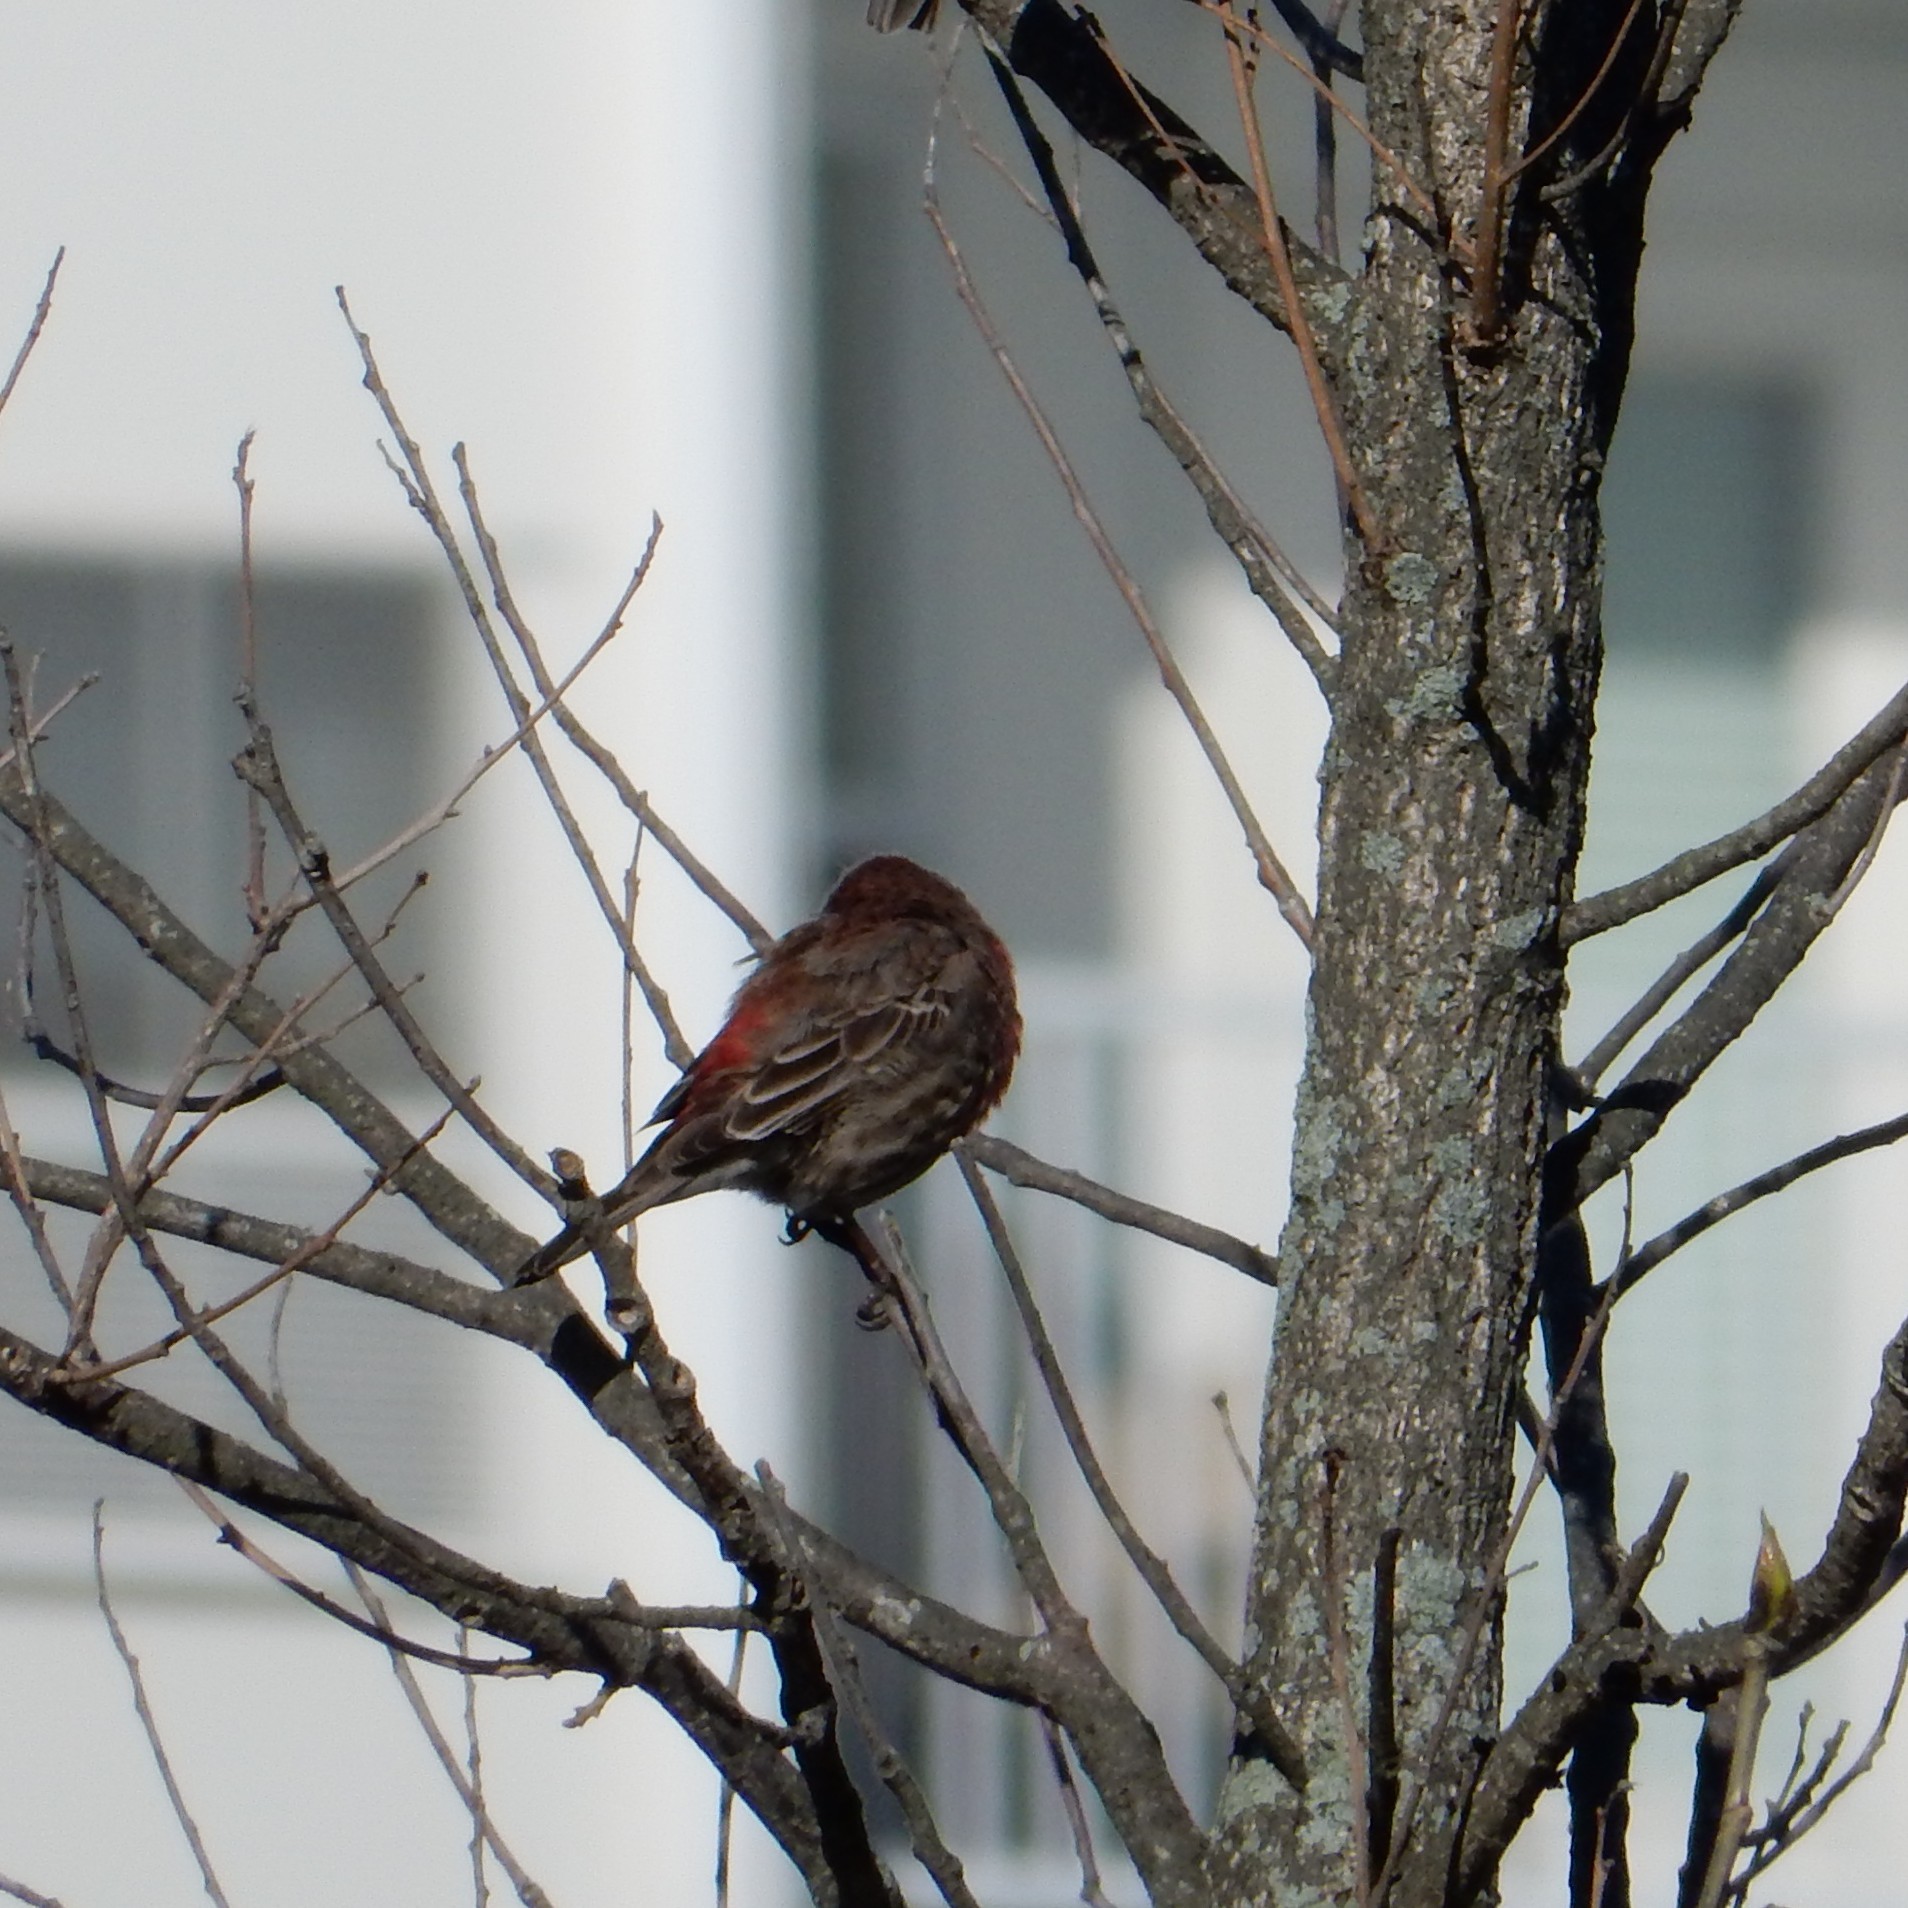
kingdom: Animalia
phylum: Chordata
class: Aves
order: Passeriformes
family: Fringillidae
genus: Haemorhous
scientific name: Haemorhous mexicanus
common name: House finch
